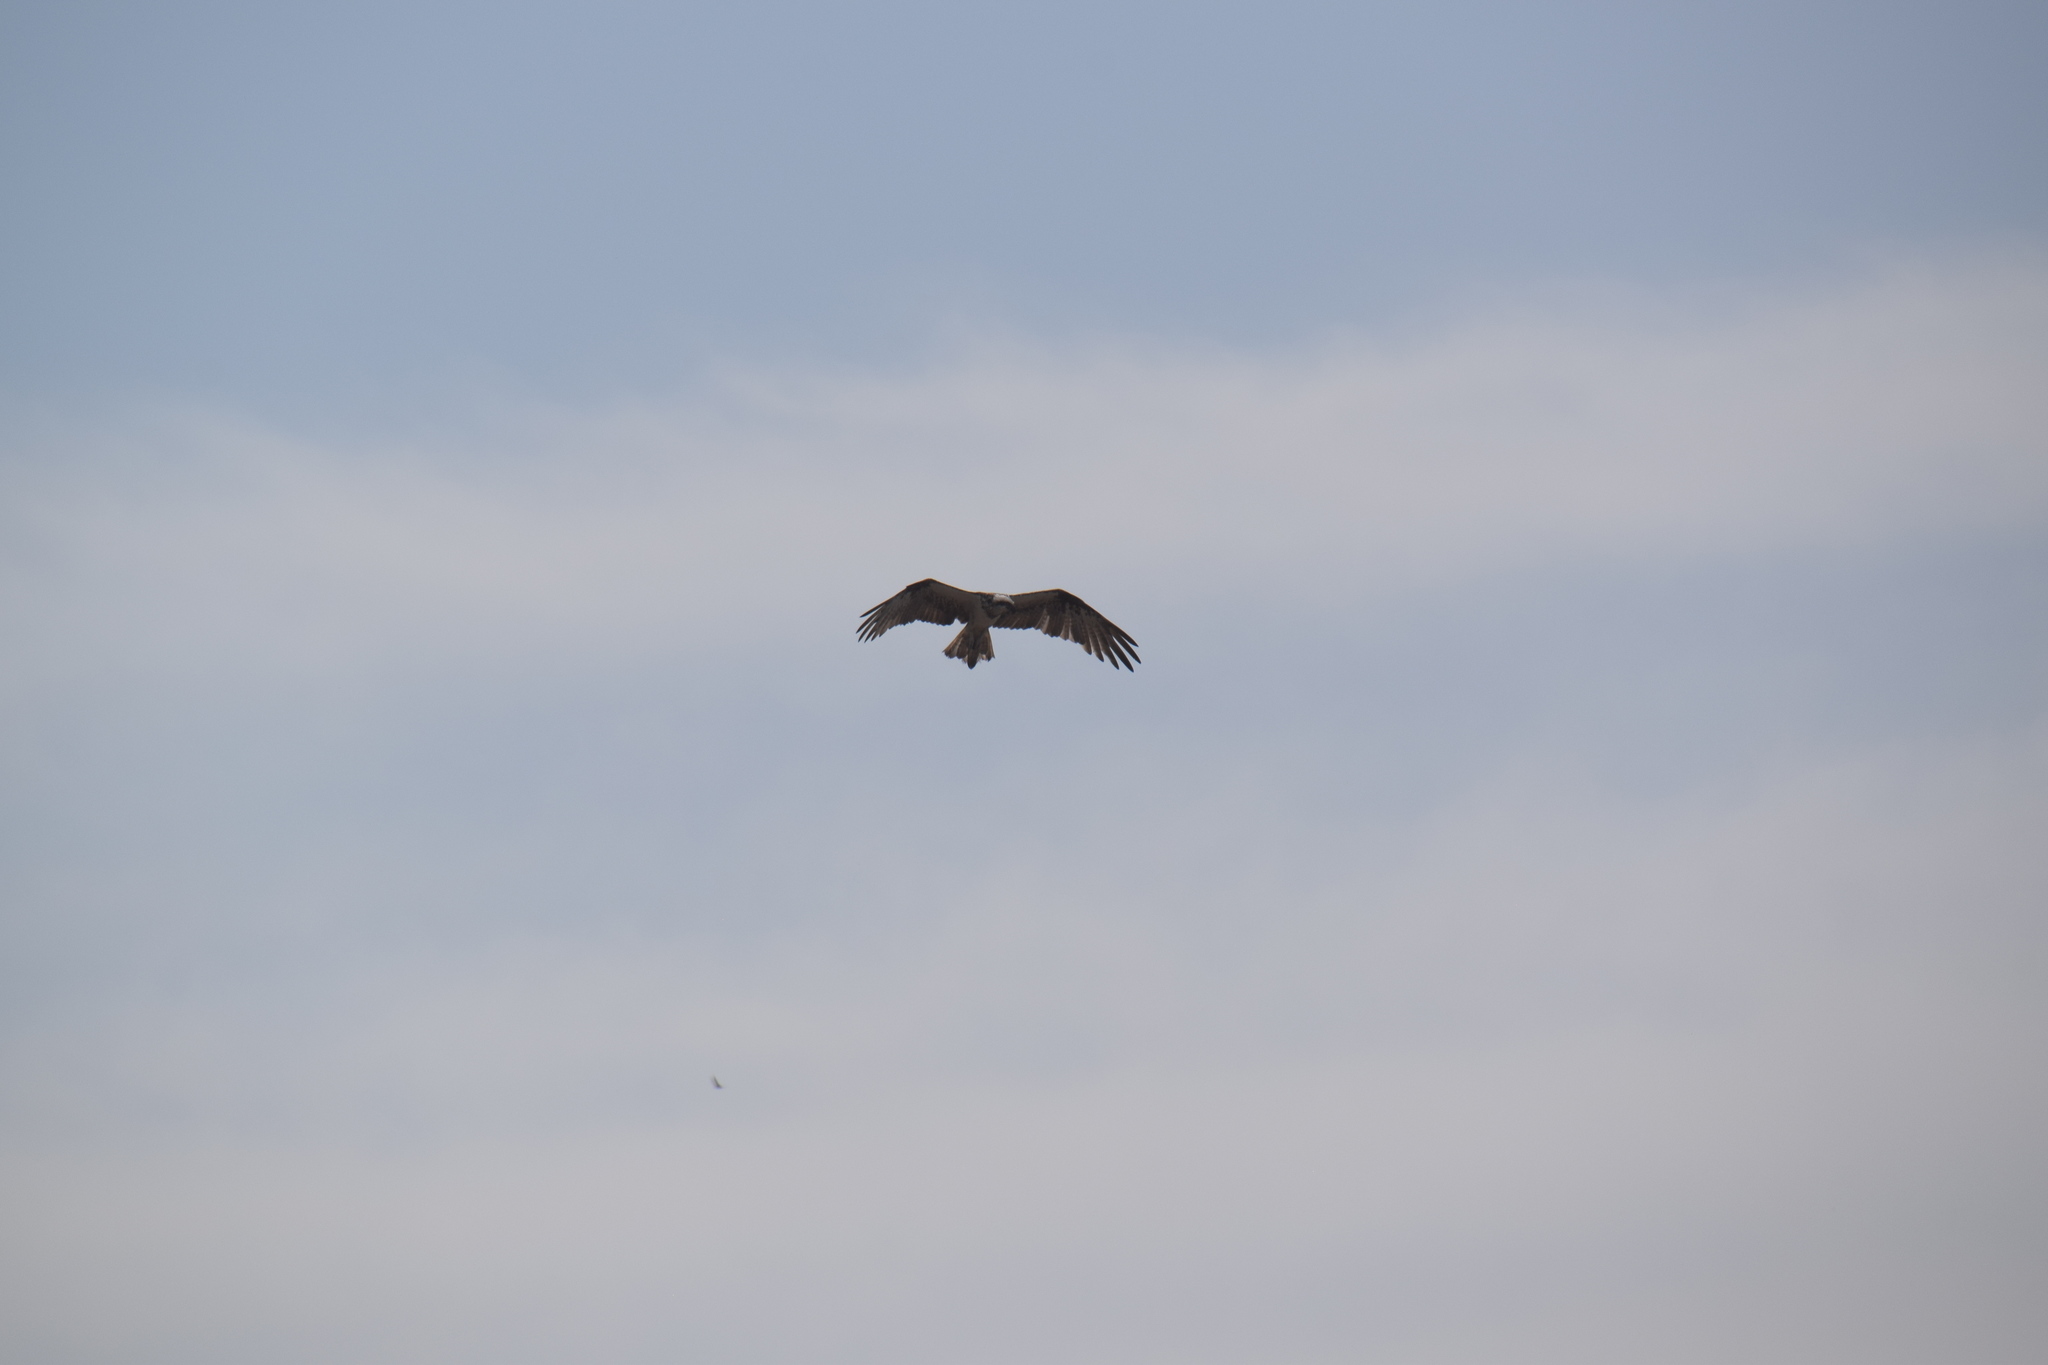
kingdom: Animalia
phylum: Chordata
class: Aves
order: Accipitriformes
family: Pandionidae
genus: Pandion
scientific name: Pandion cristatus
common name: Eastern osprey
